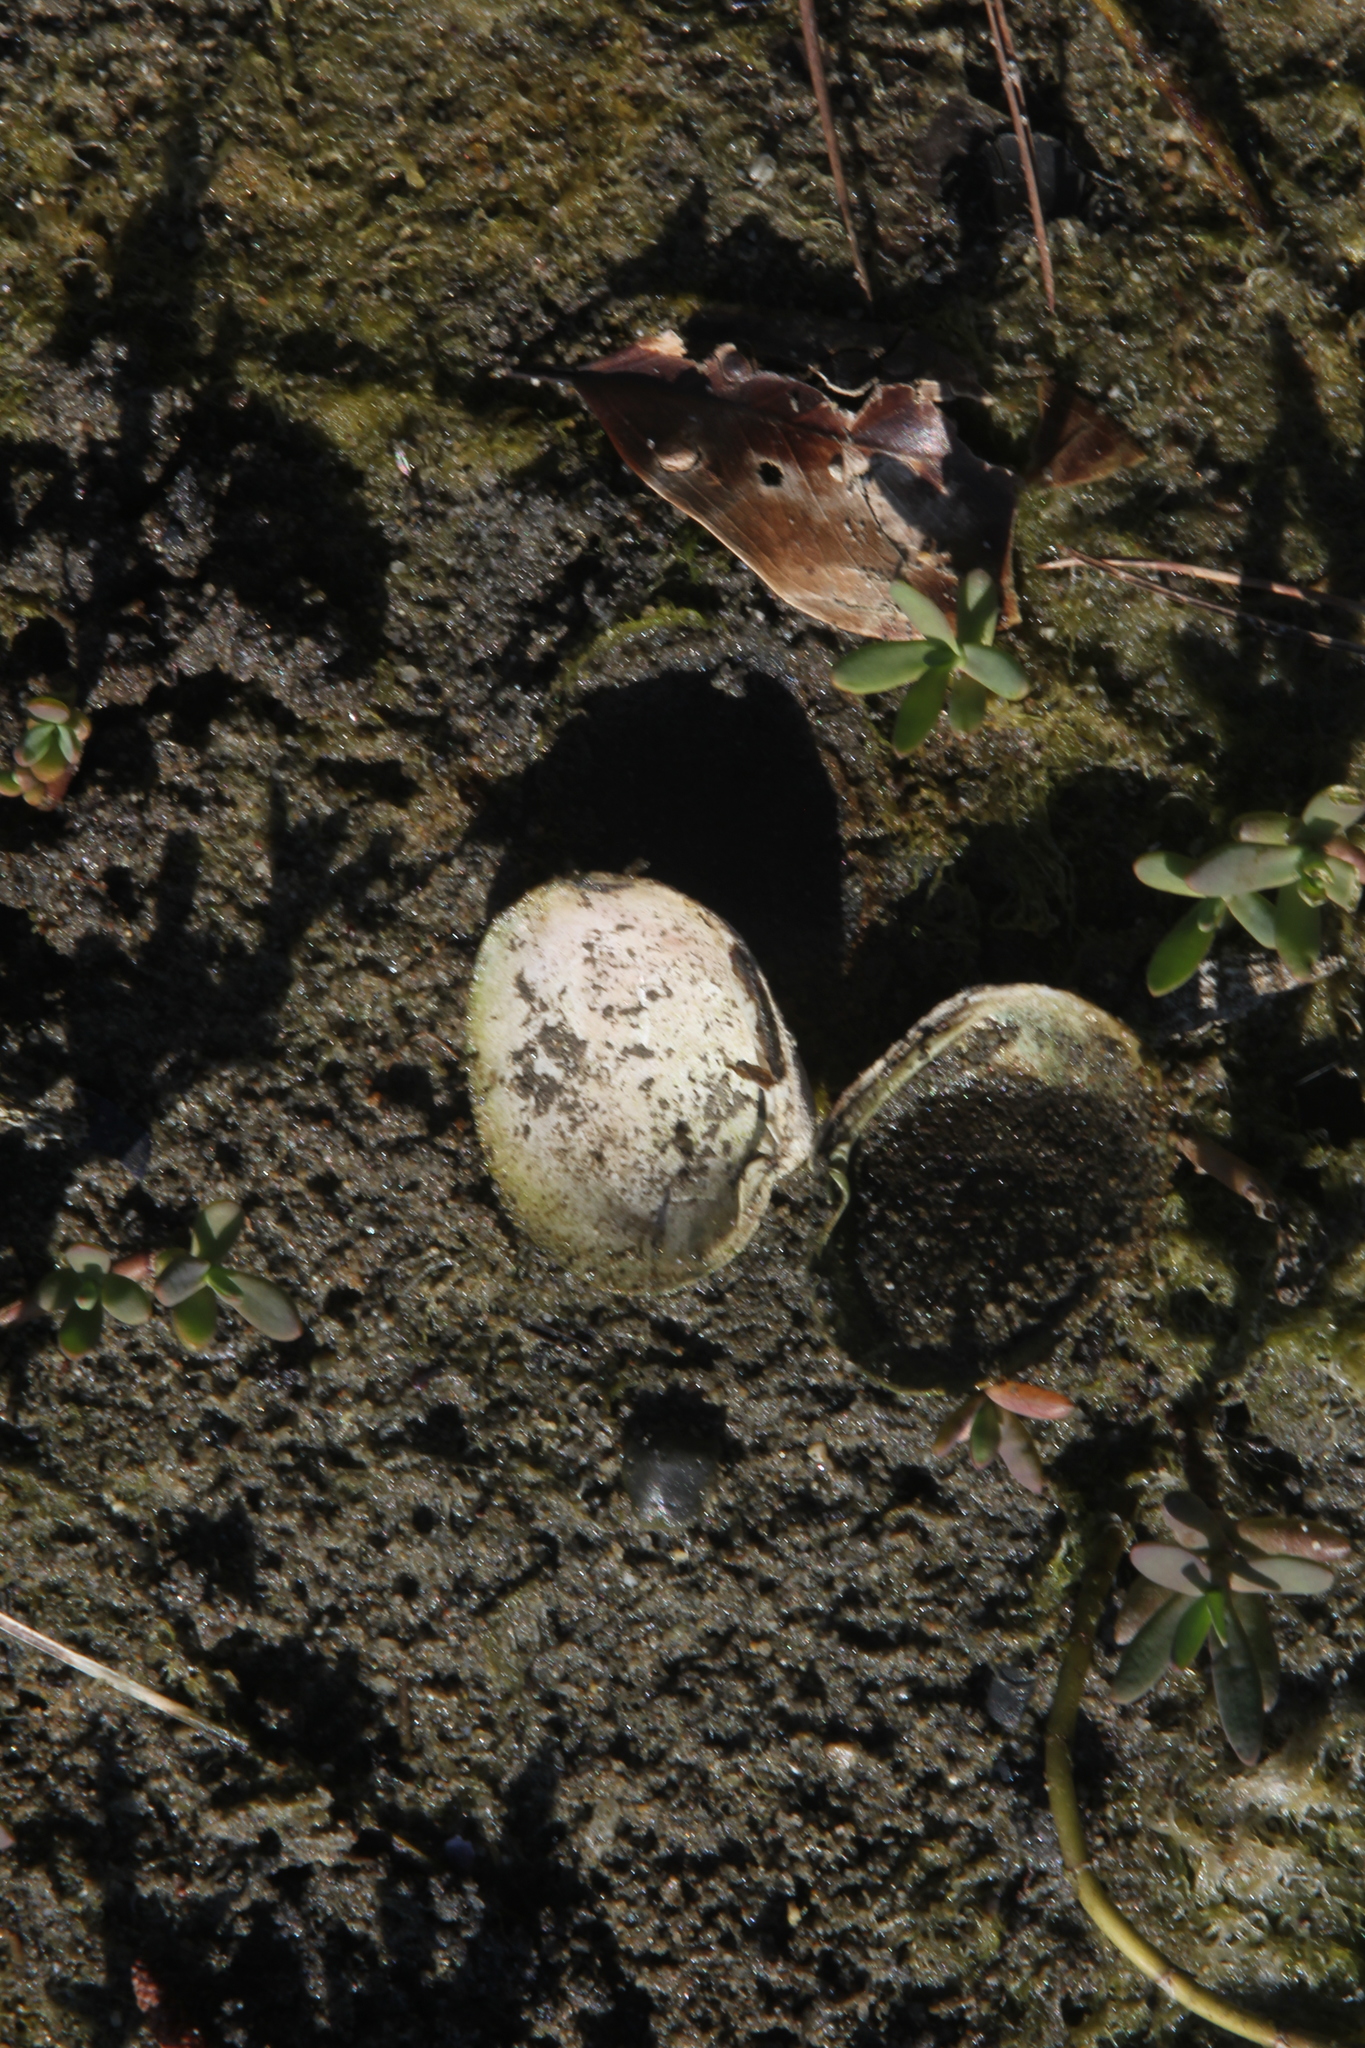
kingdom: Animalia
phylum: Mollusca
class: Bivalvia
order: Venerida
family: Veneridae
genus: Ruditapes
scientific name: Ruditapes philippinarum
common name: Manila clam
